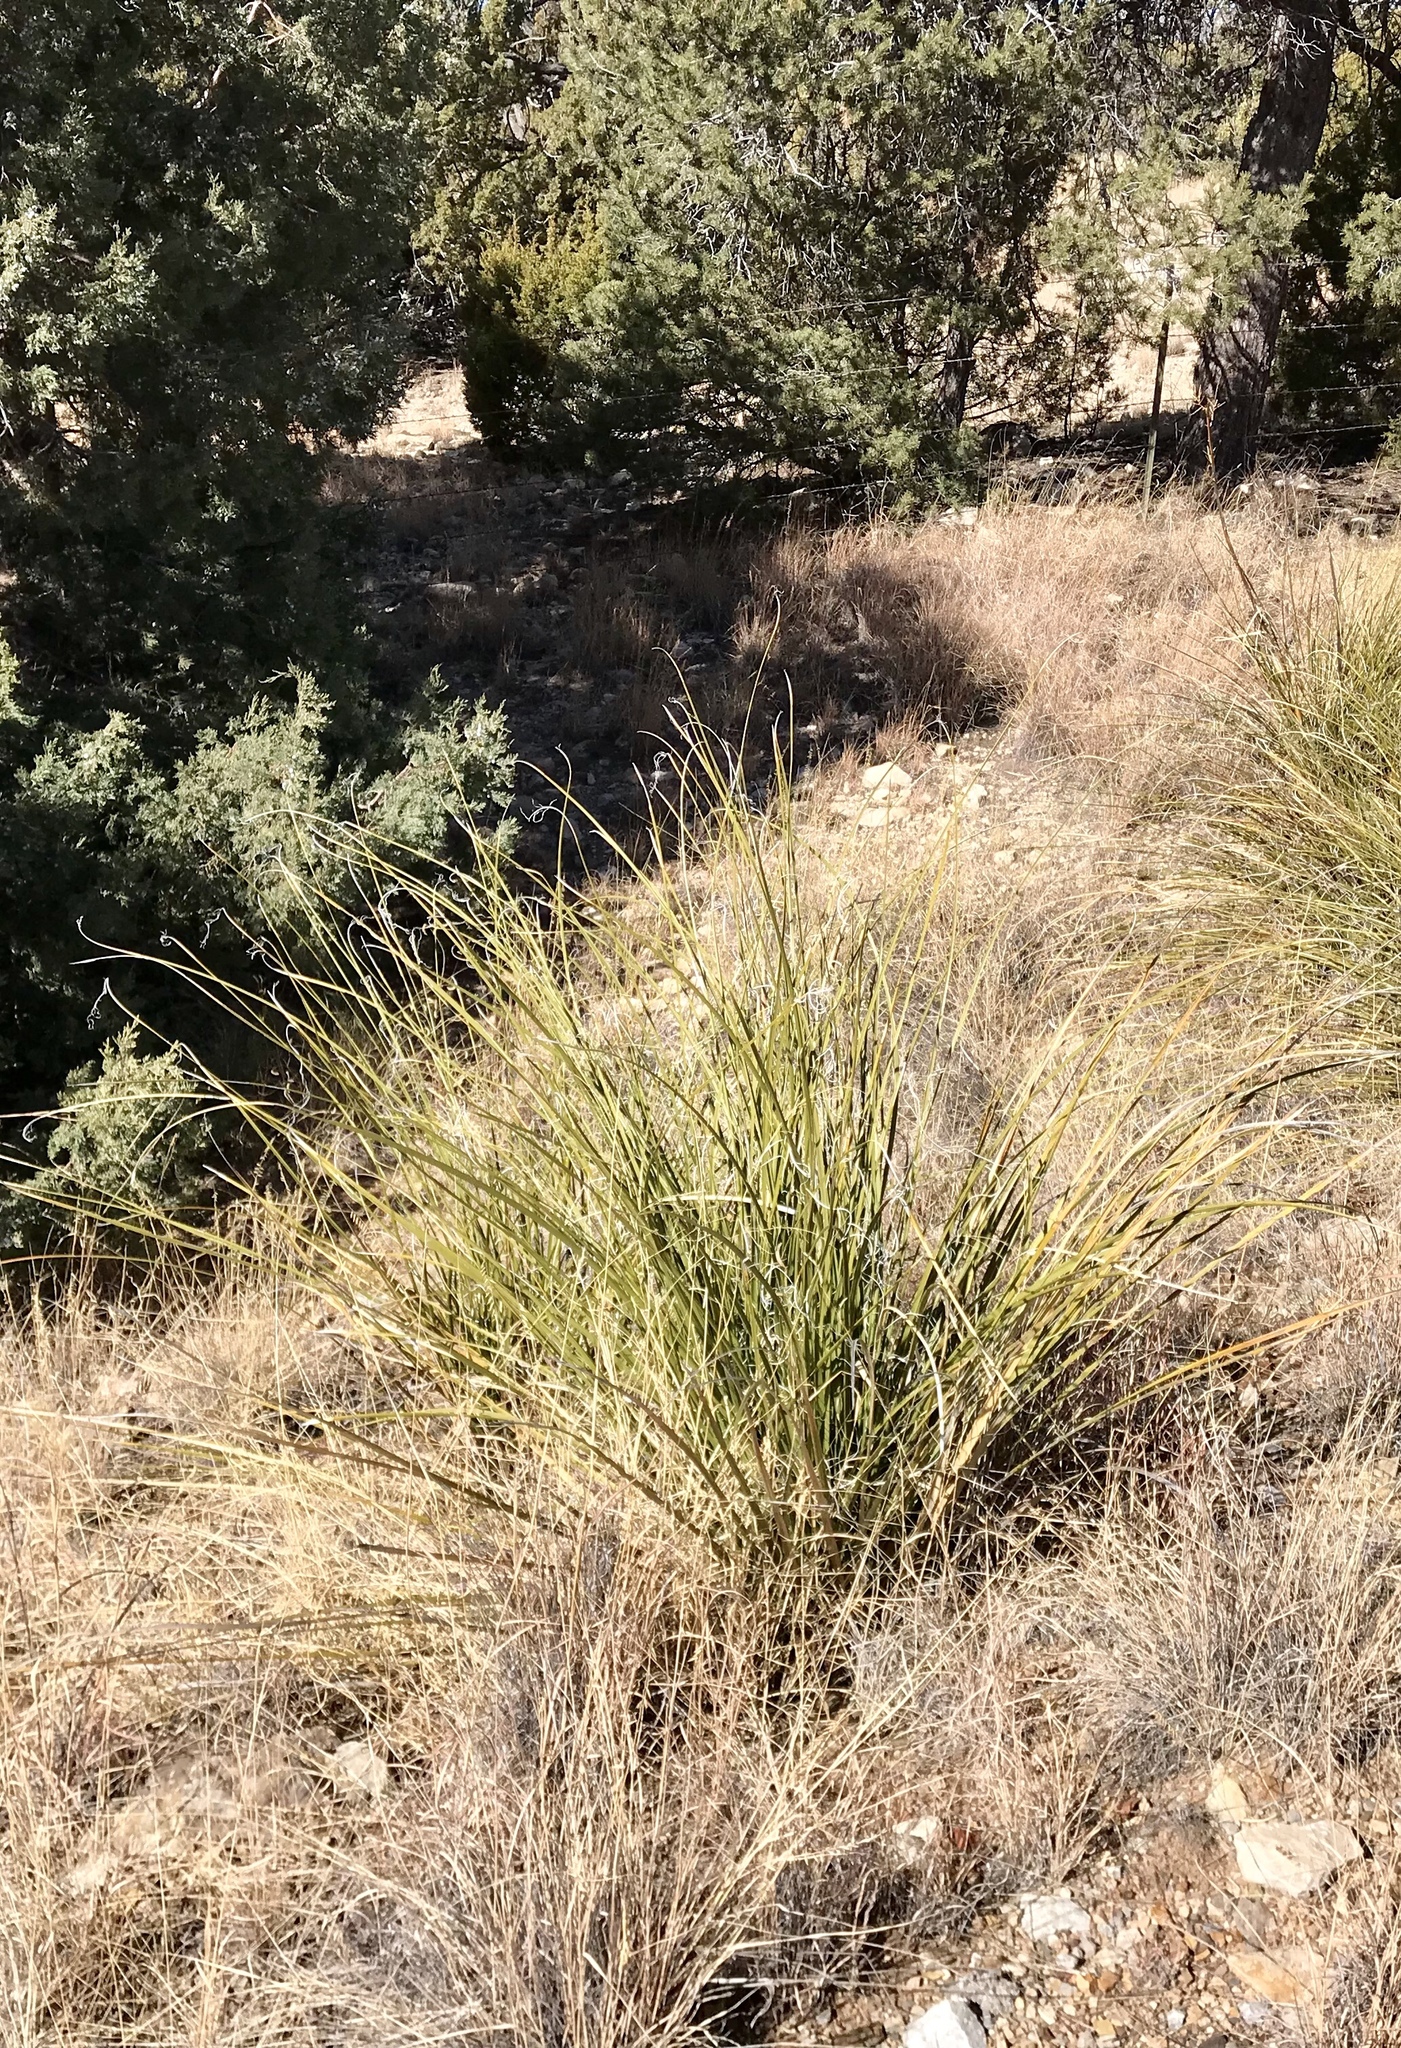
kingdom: Plantae
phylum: Tracheophyta
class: Liliopsida
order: Asparagales
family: Asparagaceae
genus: Nolina
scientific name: Nolina microcarpa
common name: Bear-grass
